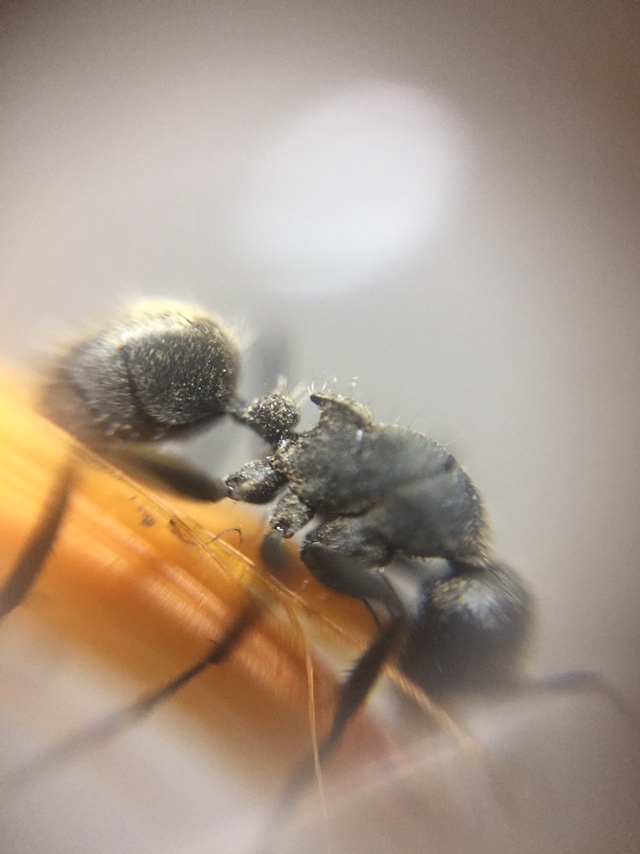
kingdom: Animalia
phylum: Arthropoda
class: Insecta
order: Hymenoptera
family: Formicidae
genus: Camponotus
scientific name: Camponotus sericeus
